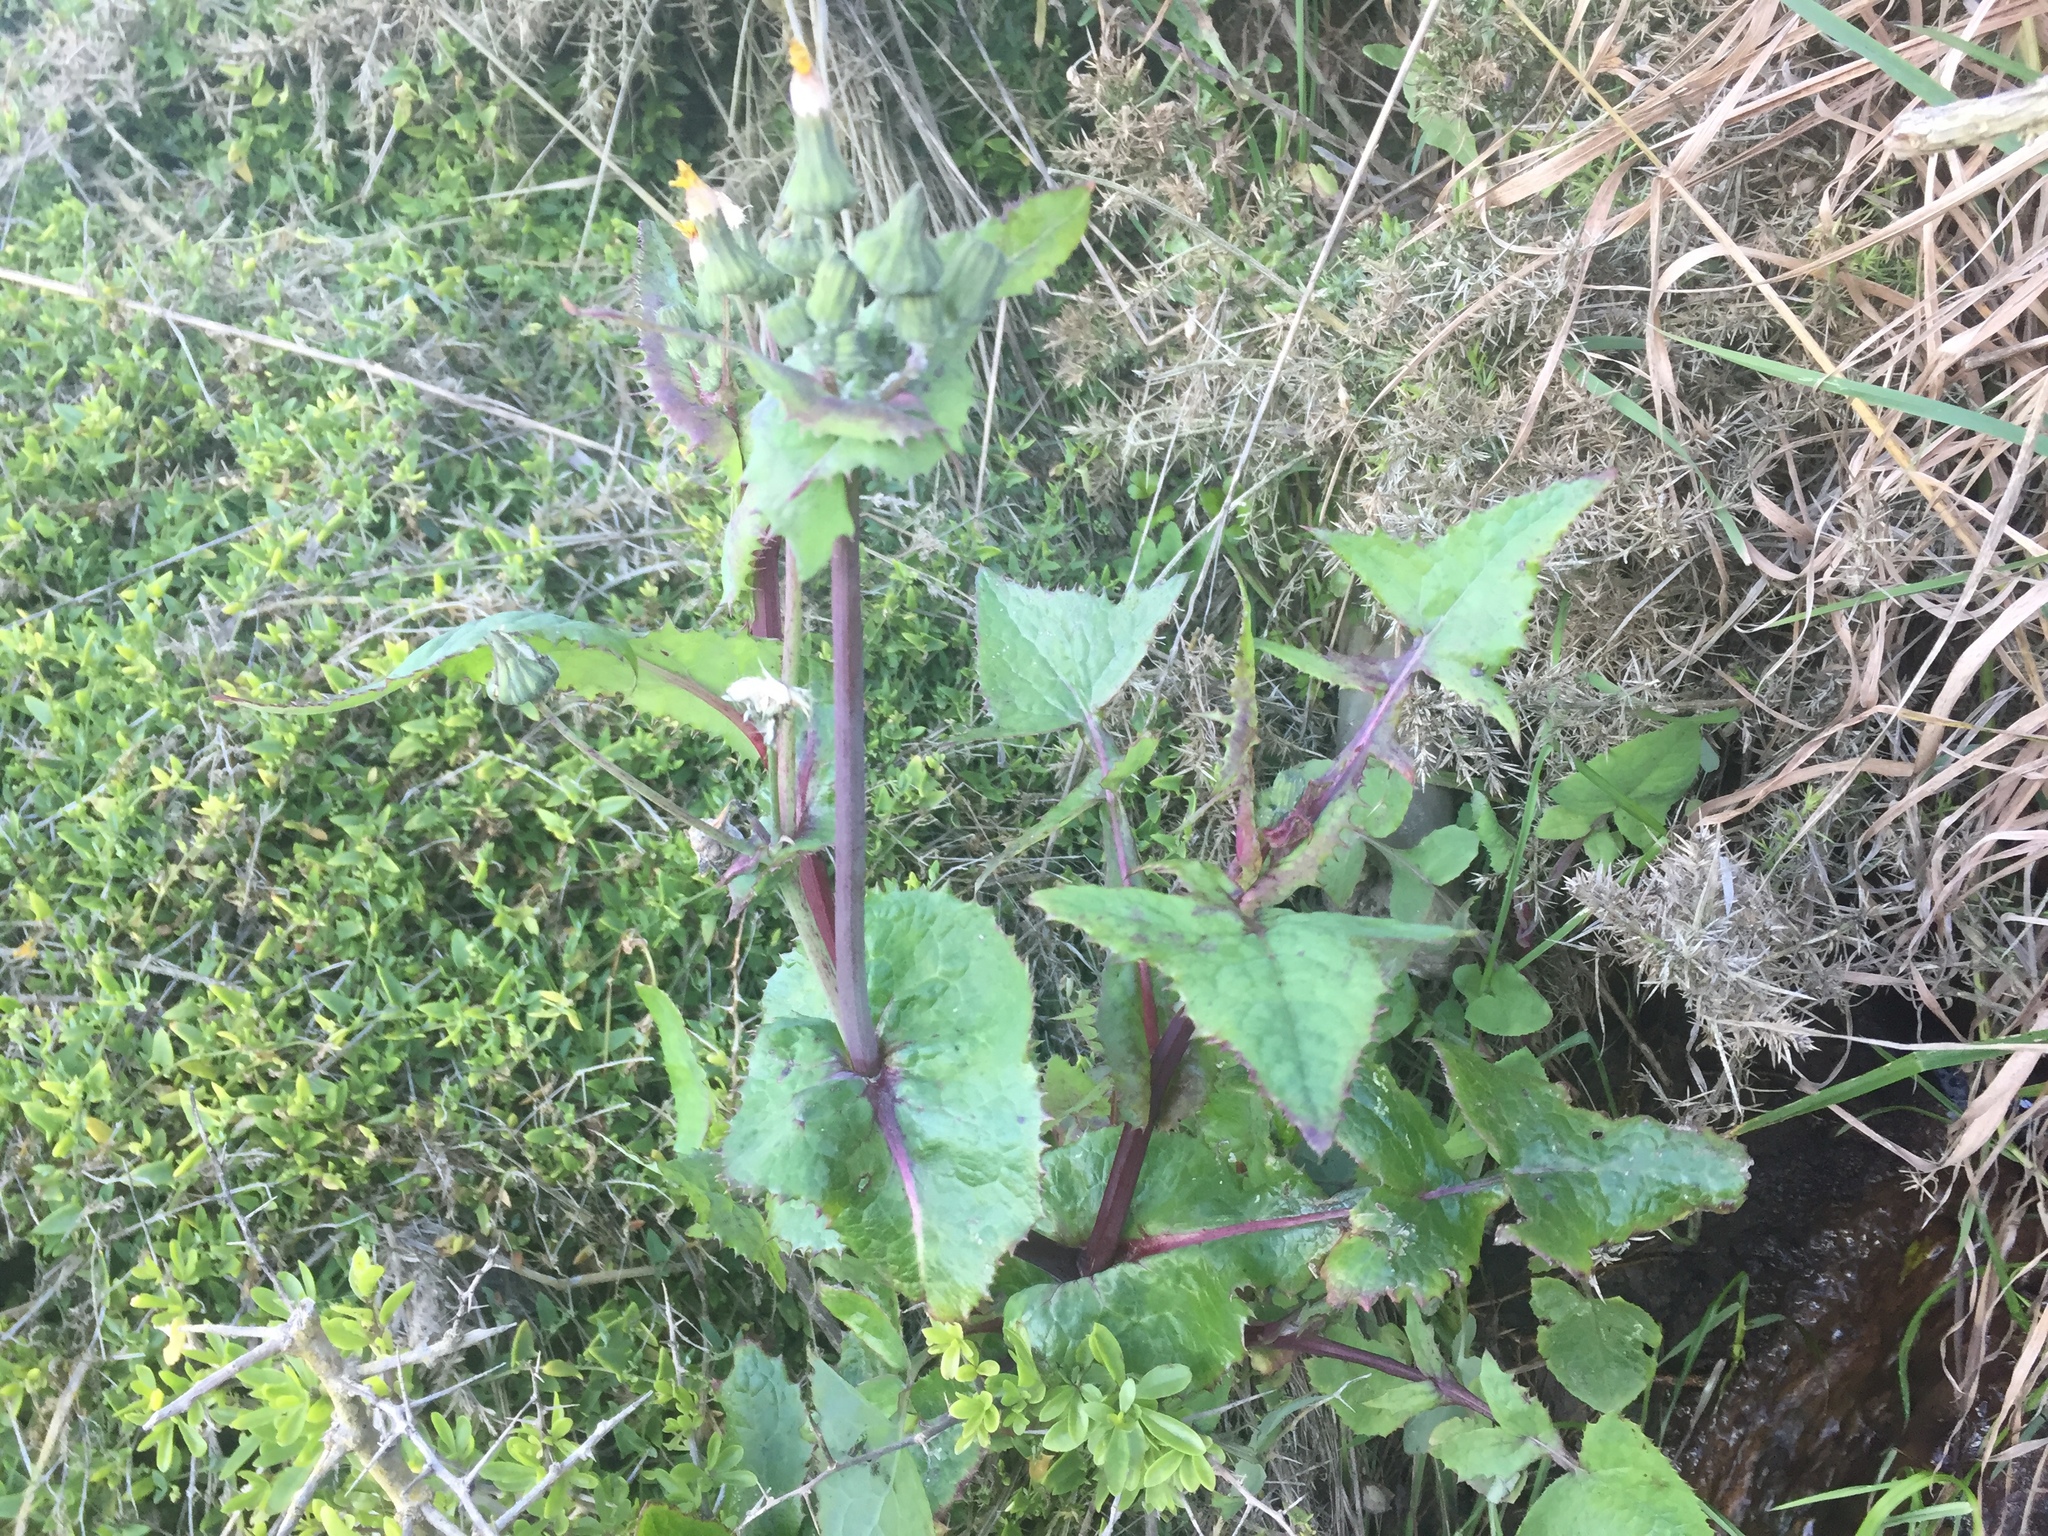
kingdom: Plantae
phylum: Tracheophyta
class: Magnoliopsida
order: Asterales
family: Asteraceae
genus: Sonchus
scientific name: Sonchus oleraceus
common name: Common sowthistle
